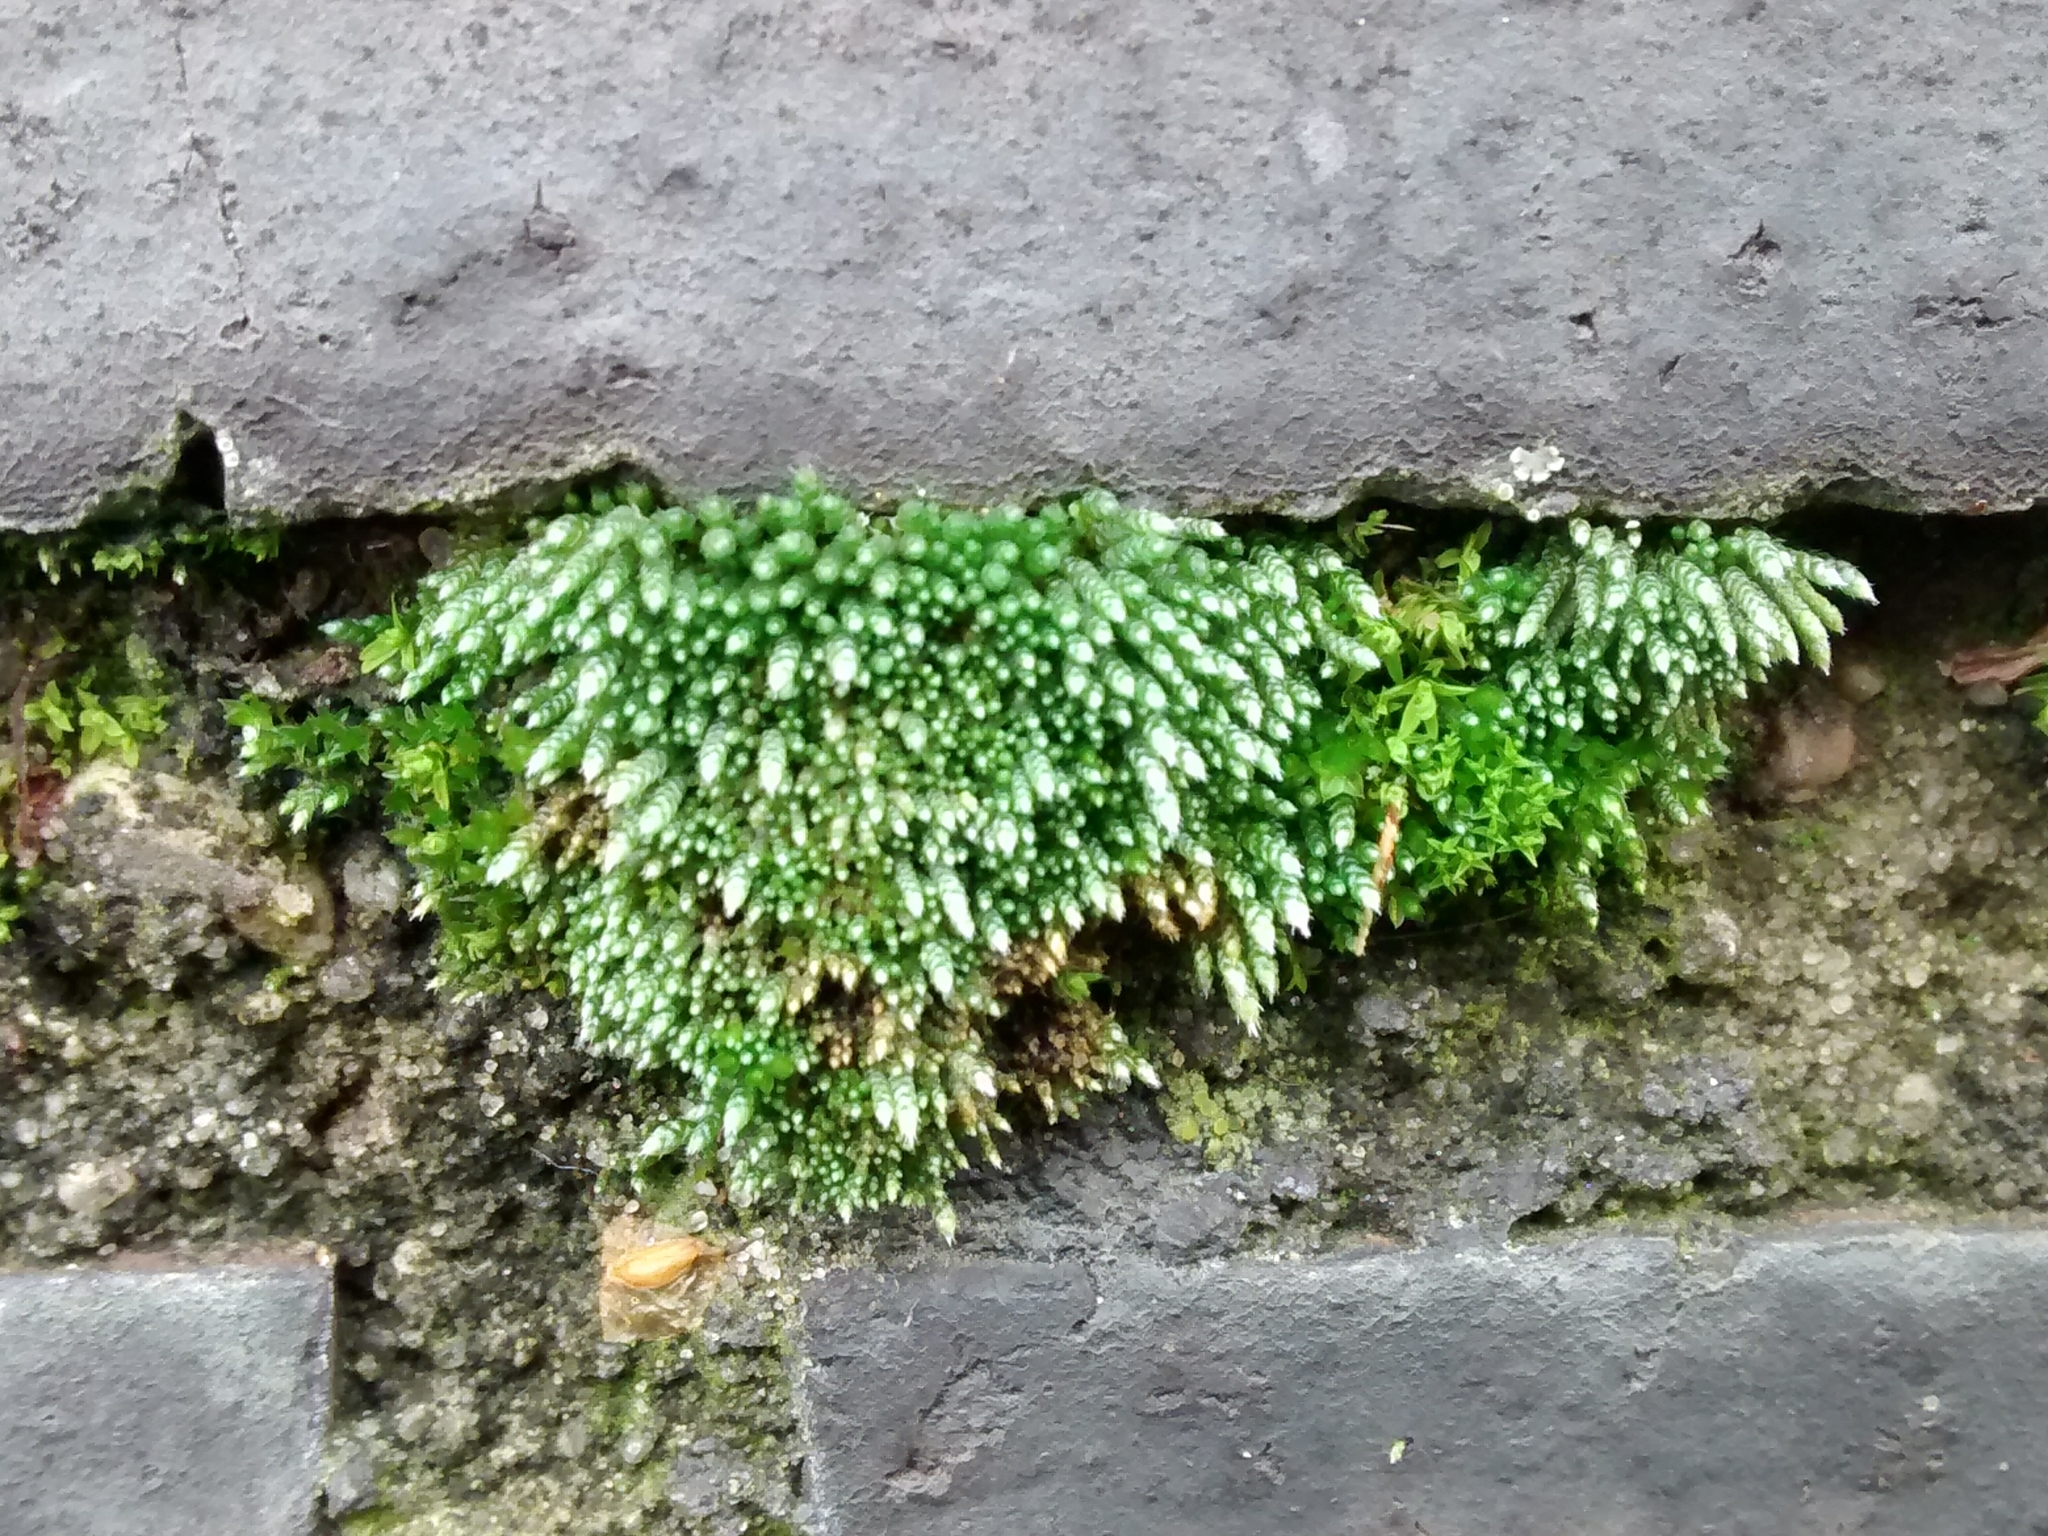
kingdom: Plantae
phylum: Bryophyta
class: Bryopsida
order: Bryales
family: Bryaceae
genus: Bryum
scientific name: Bryum argenteum
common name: Silver-moss
